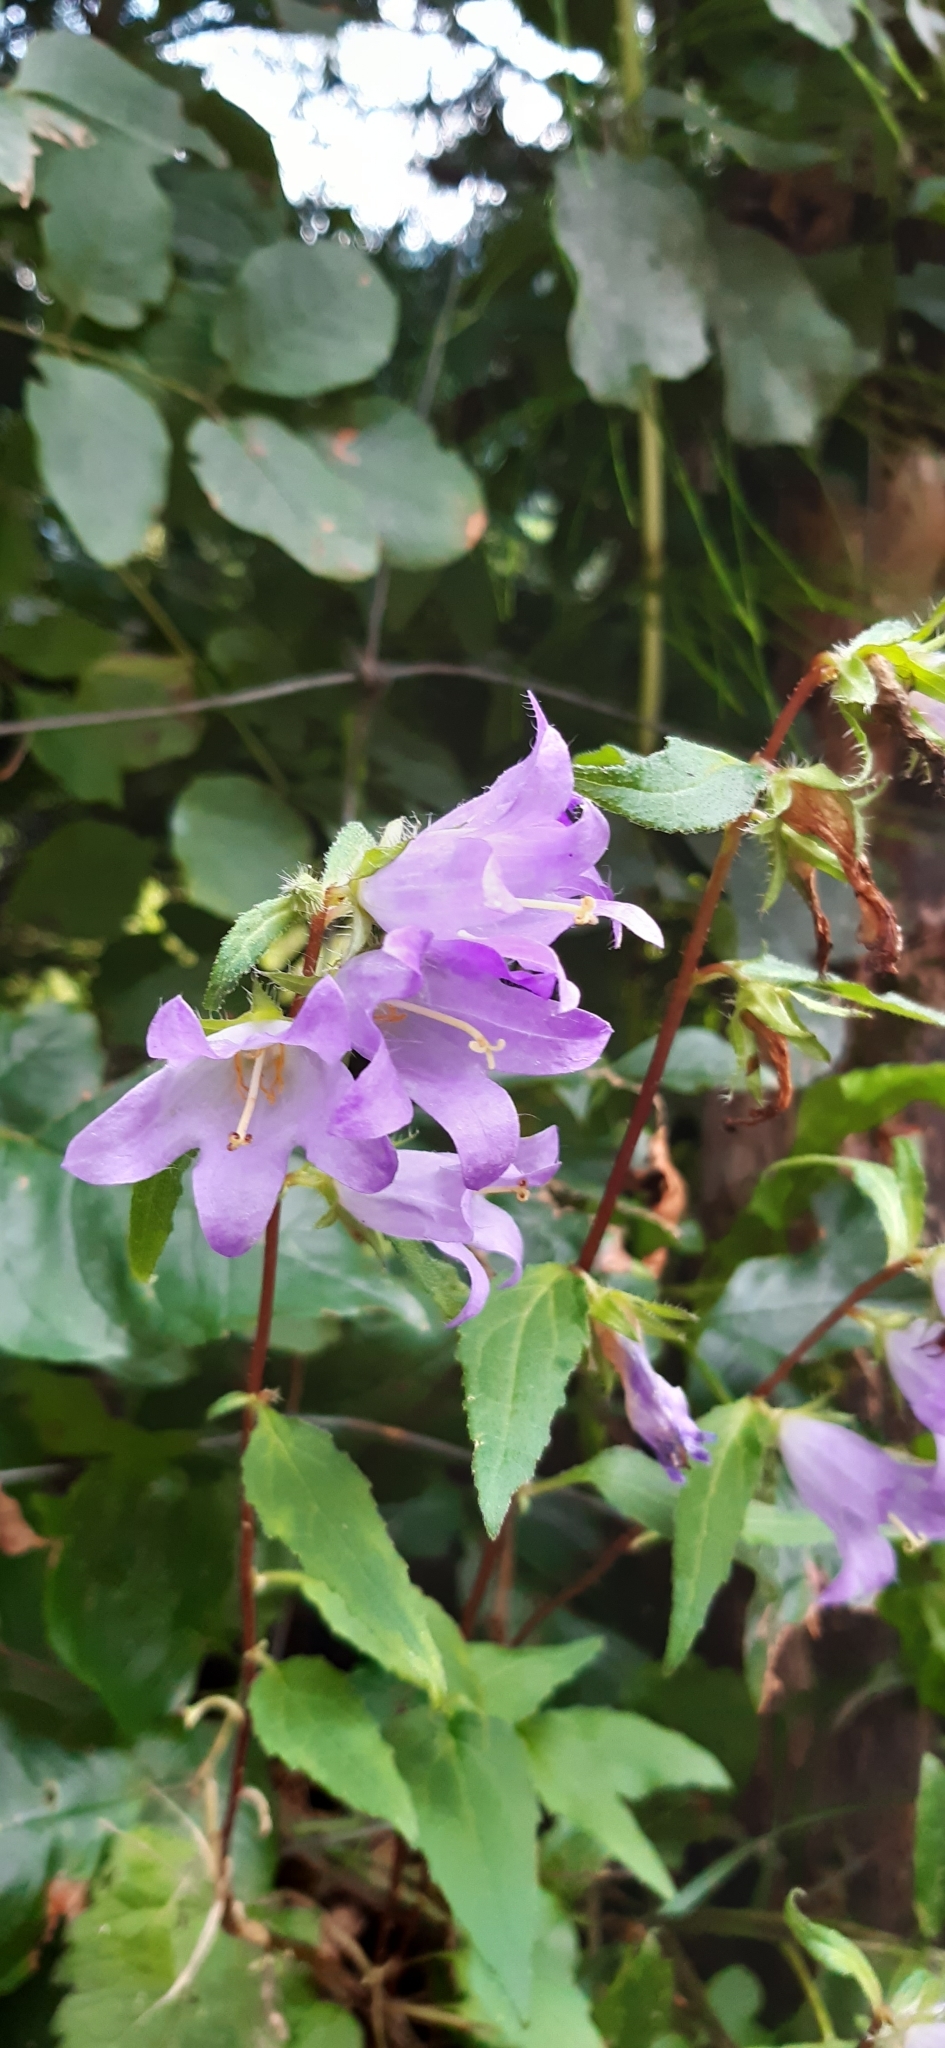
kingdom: Plantae
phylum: Tracheophyta
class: Magnoliopsida
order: Asterales
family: Campanulaceae
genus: Campanula
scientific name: Campanula trachelium
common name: Nettle-leaved bellflower
